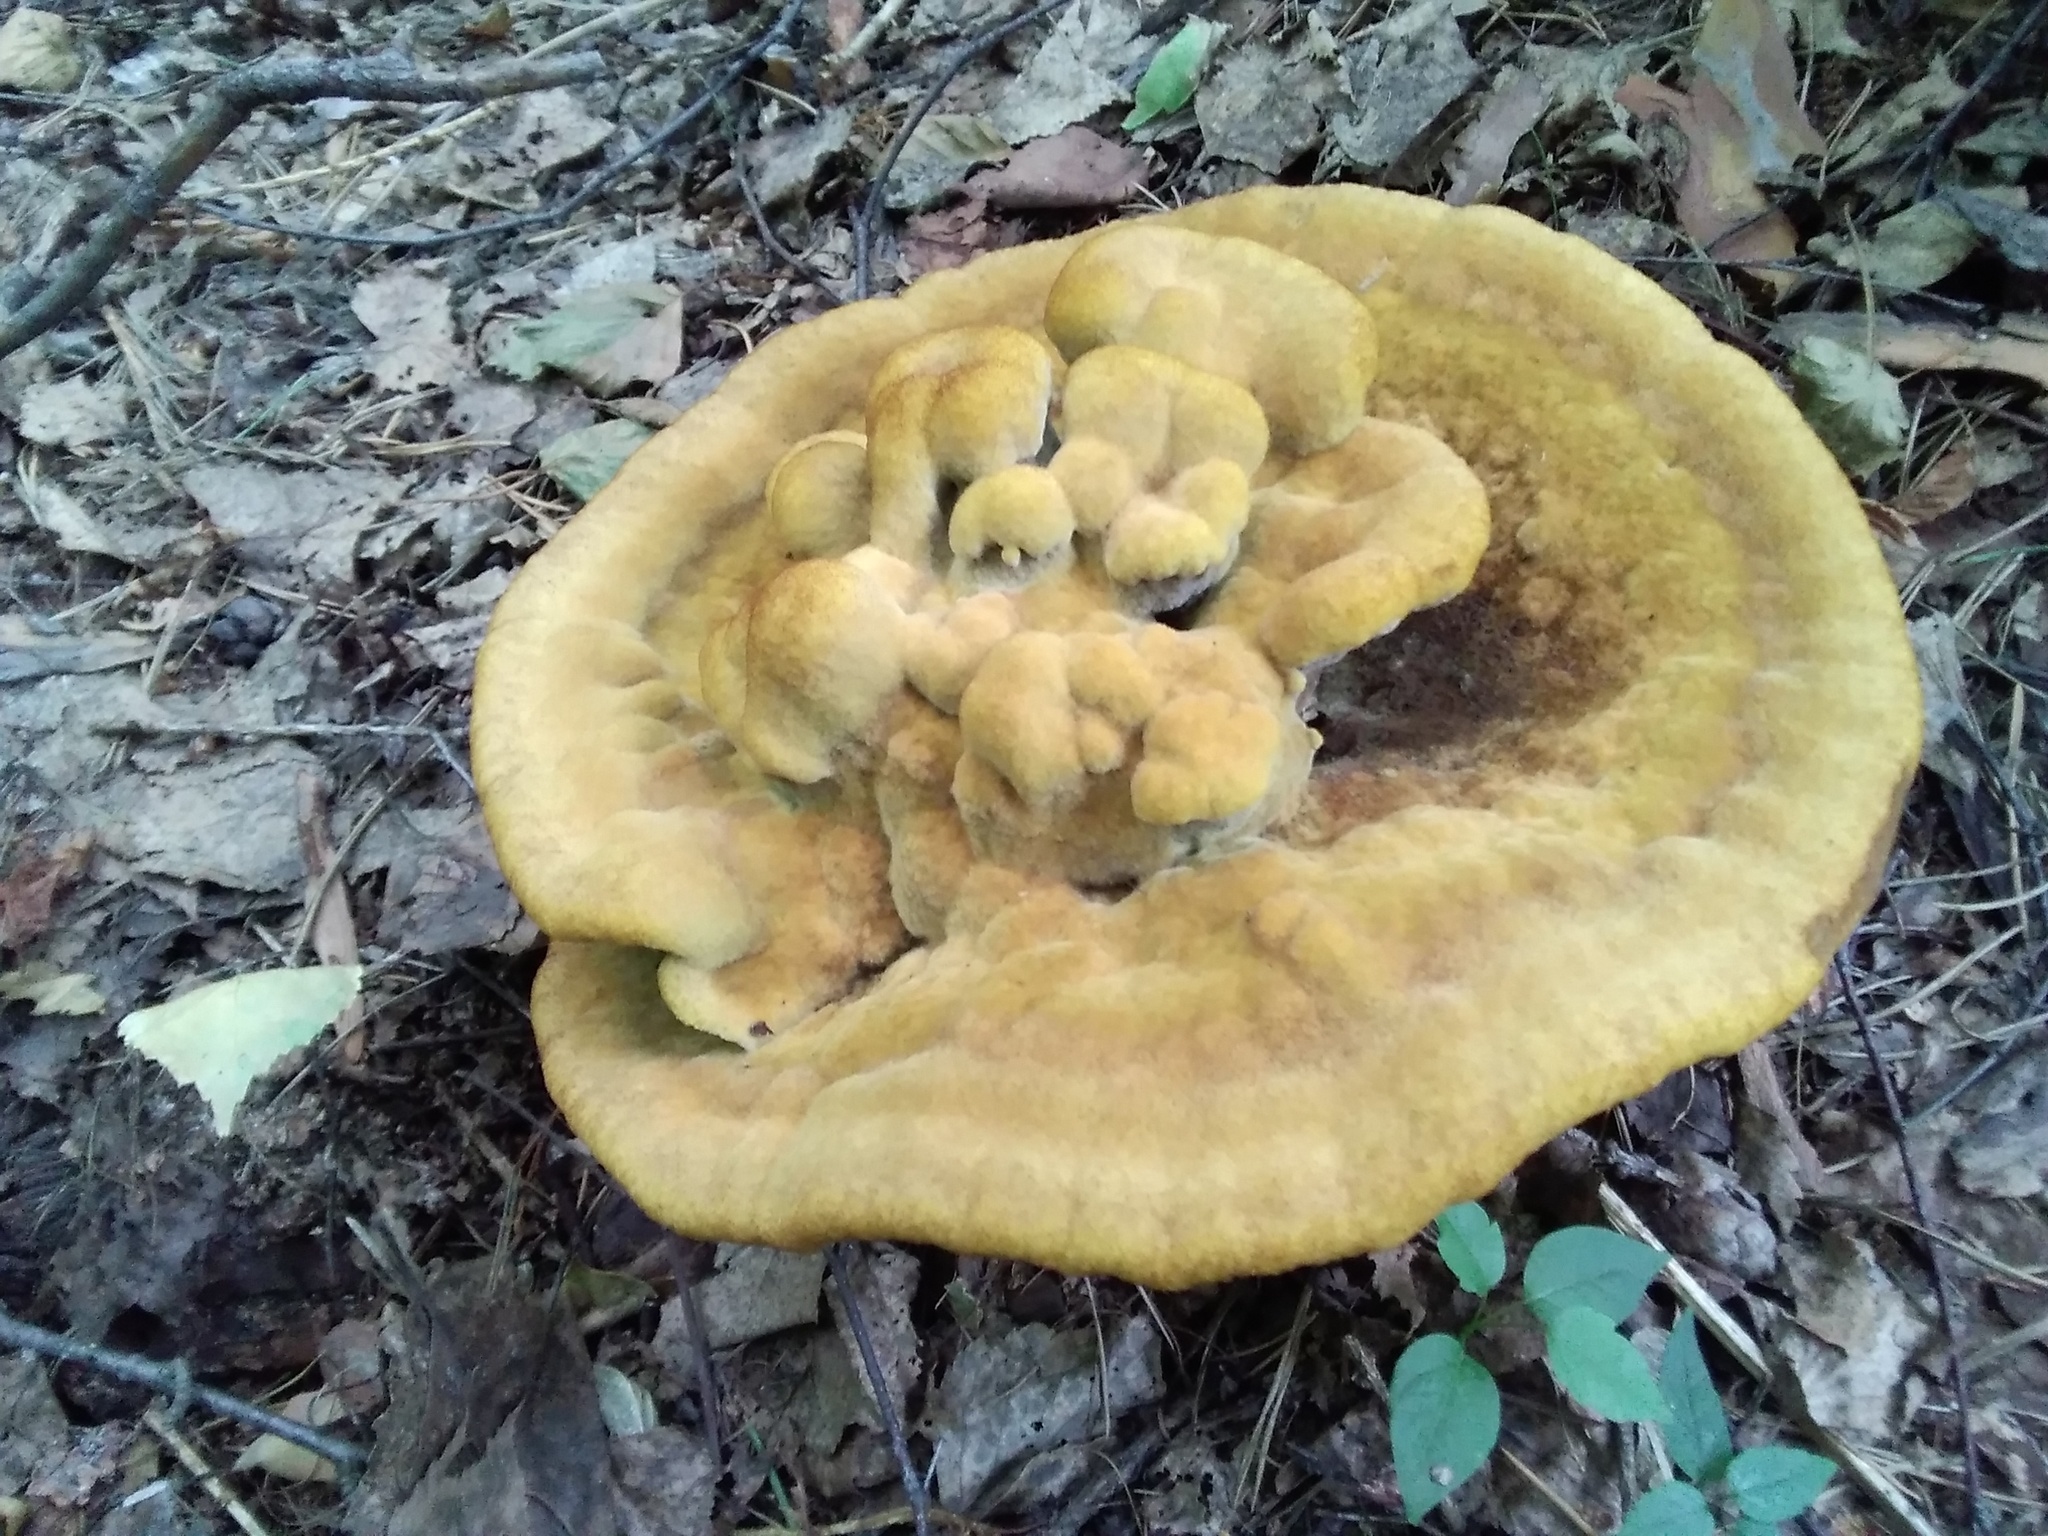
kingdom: Fungi
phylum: Basidiomycota
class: Agaricomycetes
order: Polyporales
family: Laetiporaceae
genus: Phaeolus
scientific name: Phaeolus schweinitzii
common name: Dyer's mazegill
